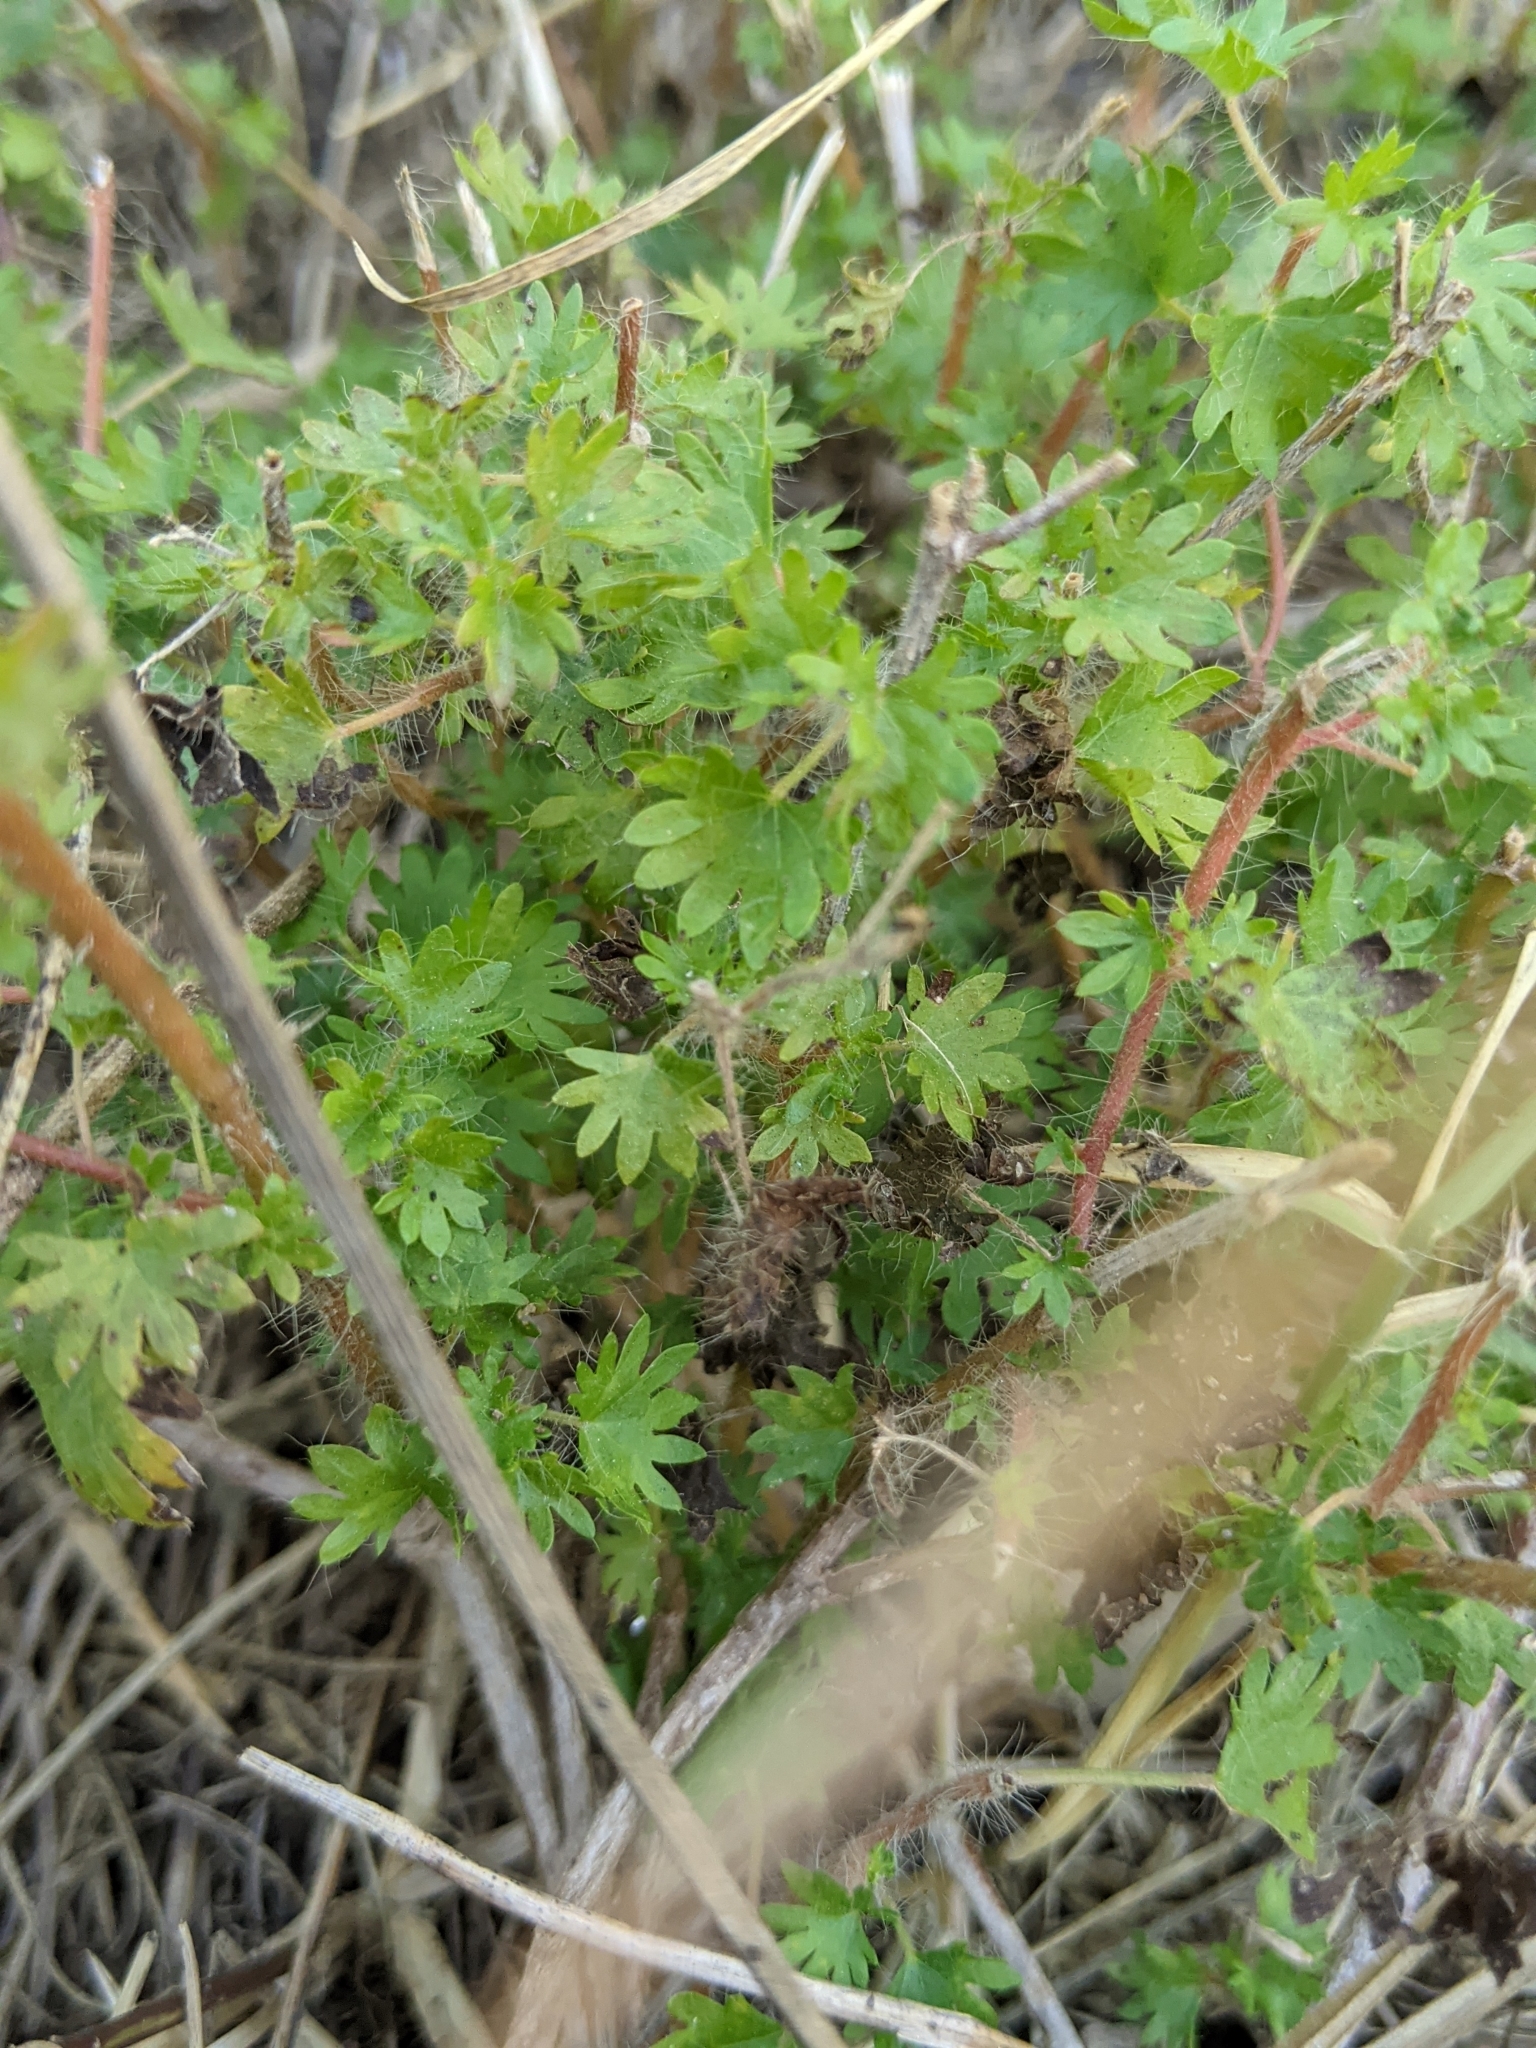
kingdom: Plantae
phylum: Tracheophyta
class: Magnoliopsida
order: Malpighiales
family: Euphorbiaceae
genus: Acalypha
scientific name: Acalypha radians
